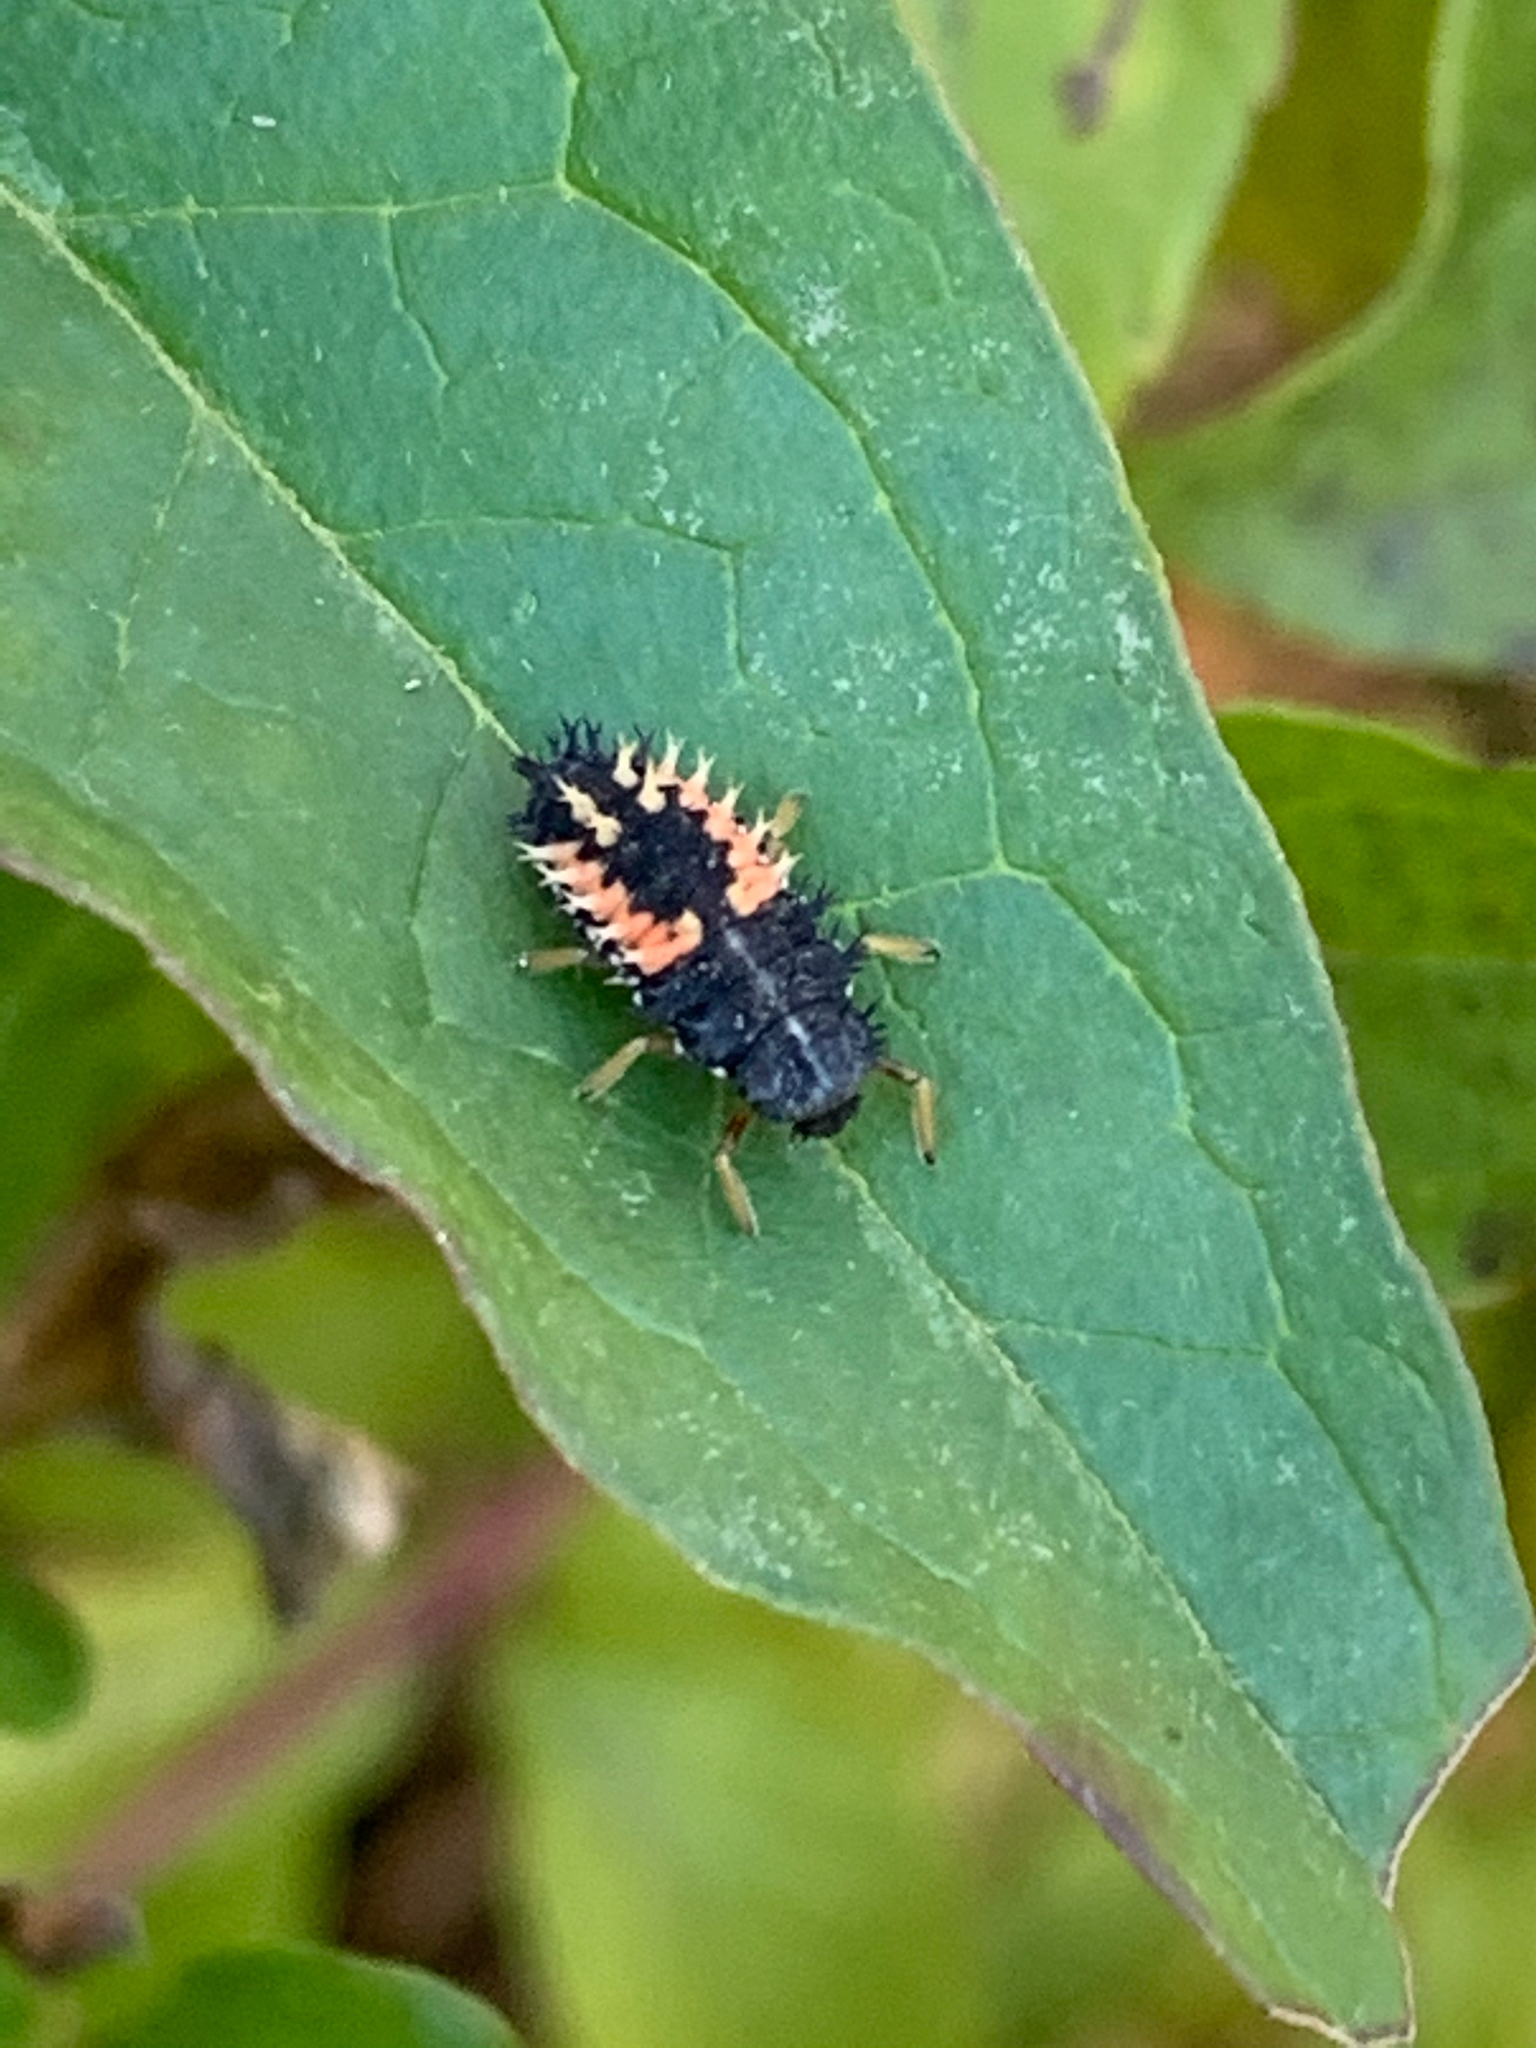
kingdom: Animalia
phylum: Arthropoda
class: Insecta
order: Coleoptera
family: Coccinellidae
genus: Harmonia
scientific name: Harmonia axyridis
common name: Harlequin ladybird
